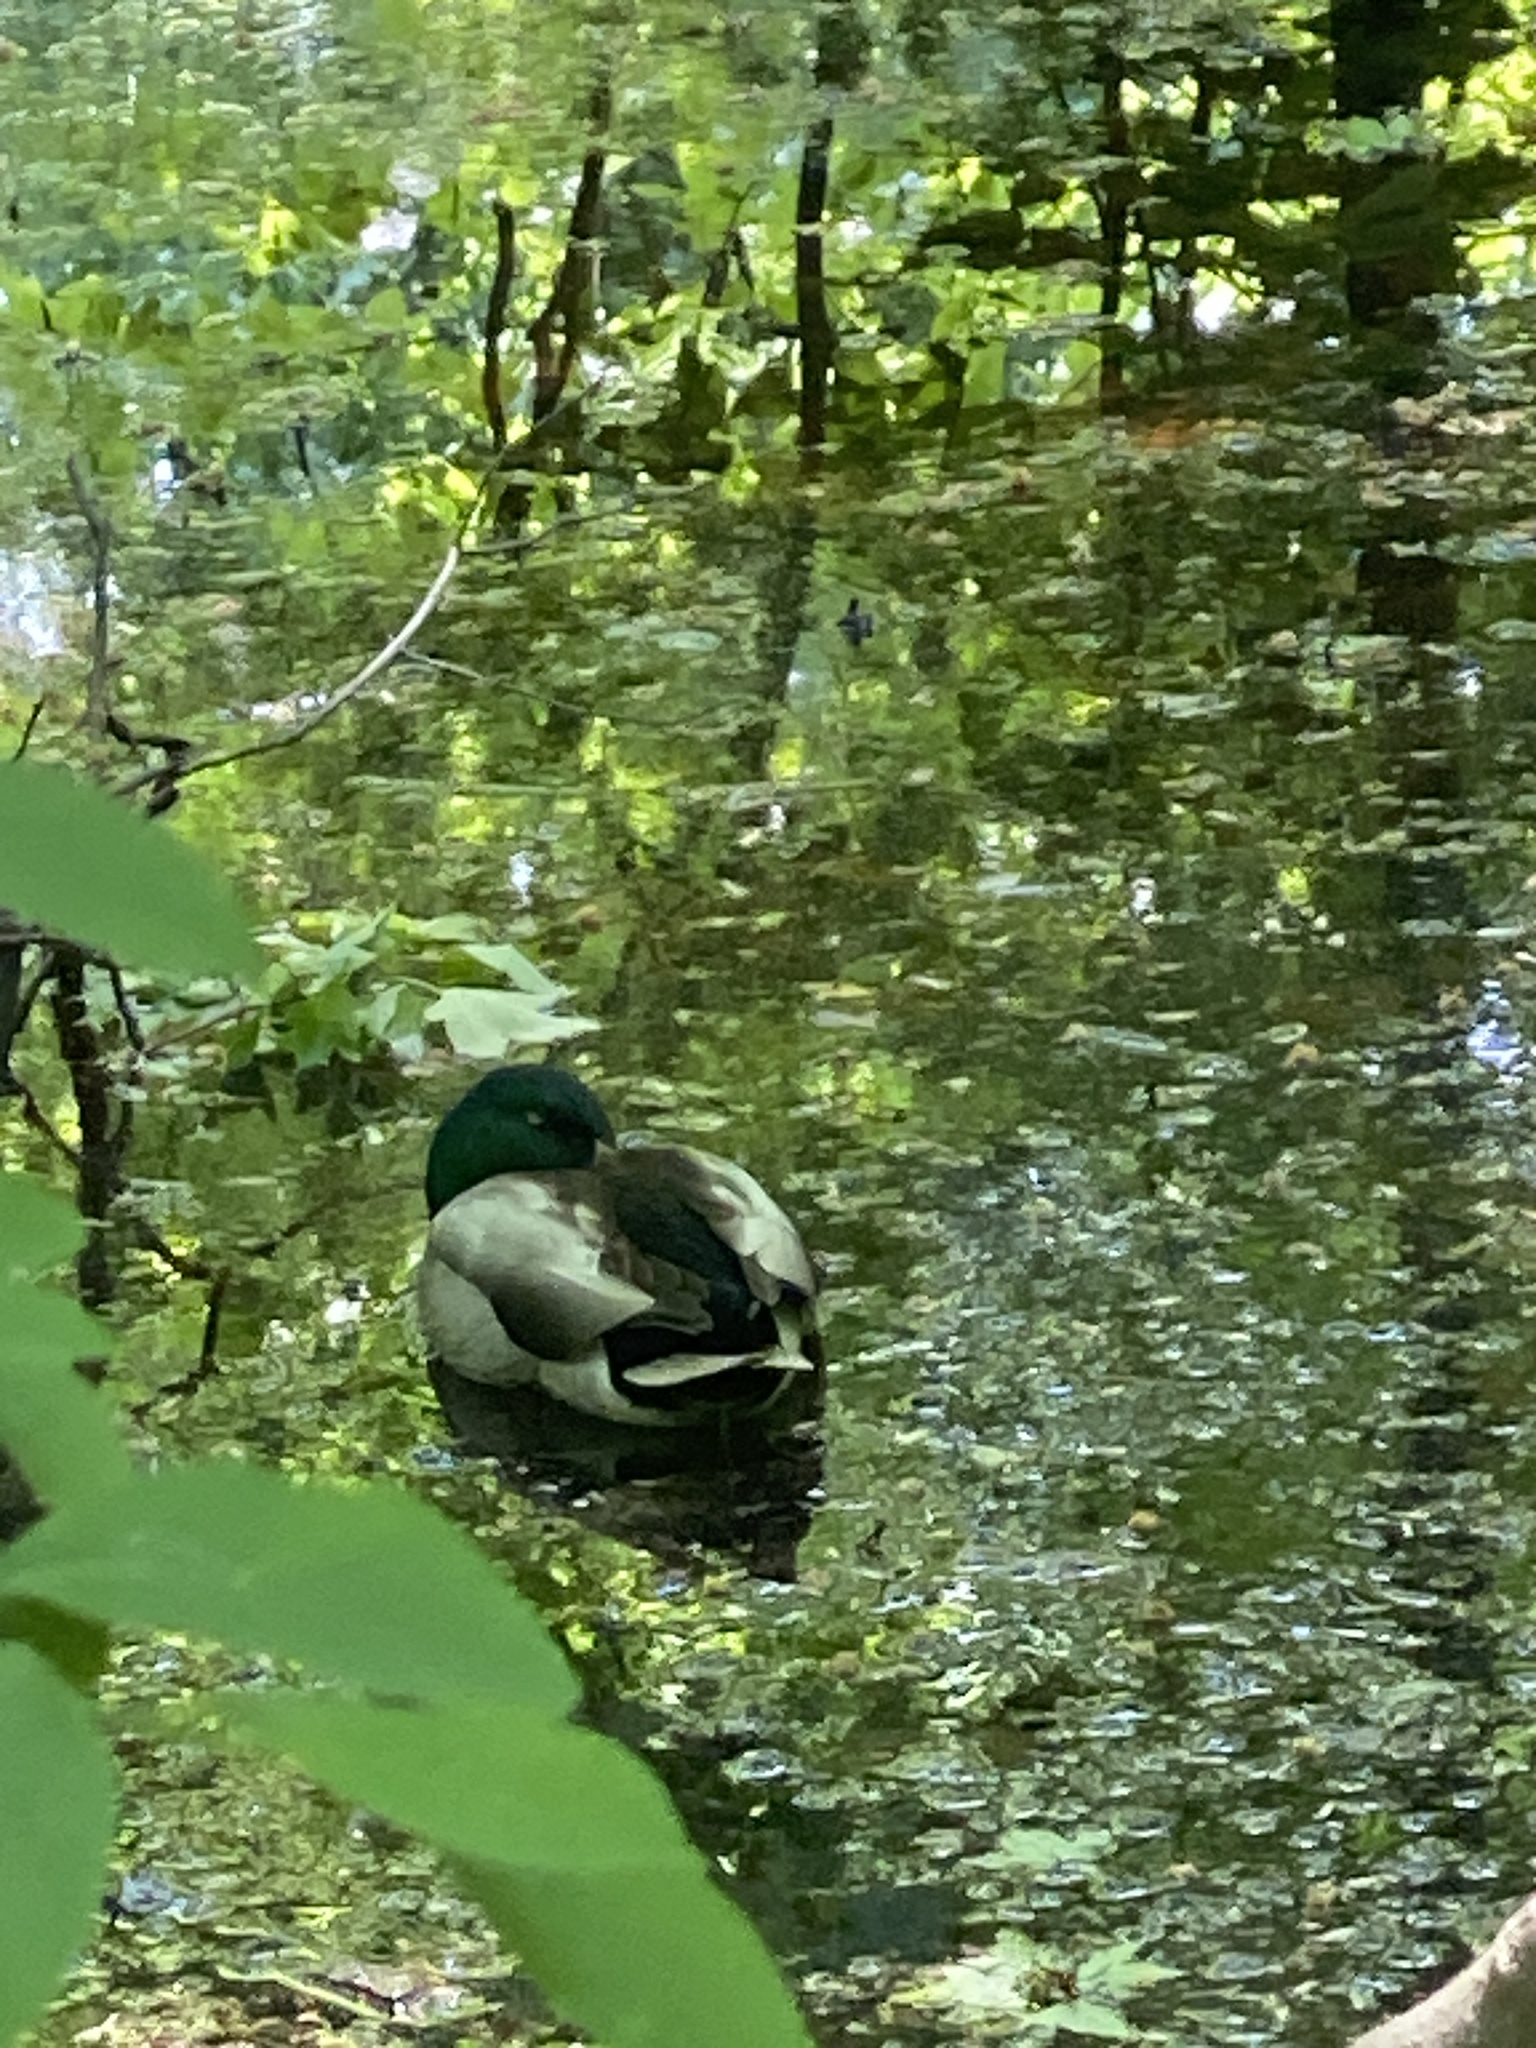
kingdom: Animalia
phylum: Chordata
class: Aves
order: Anseriformes
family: Anatidae
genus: Anas
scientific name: Anas platyrhynchos
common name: Mallard
